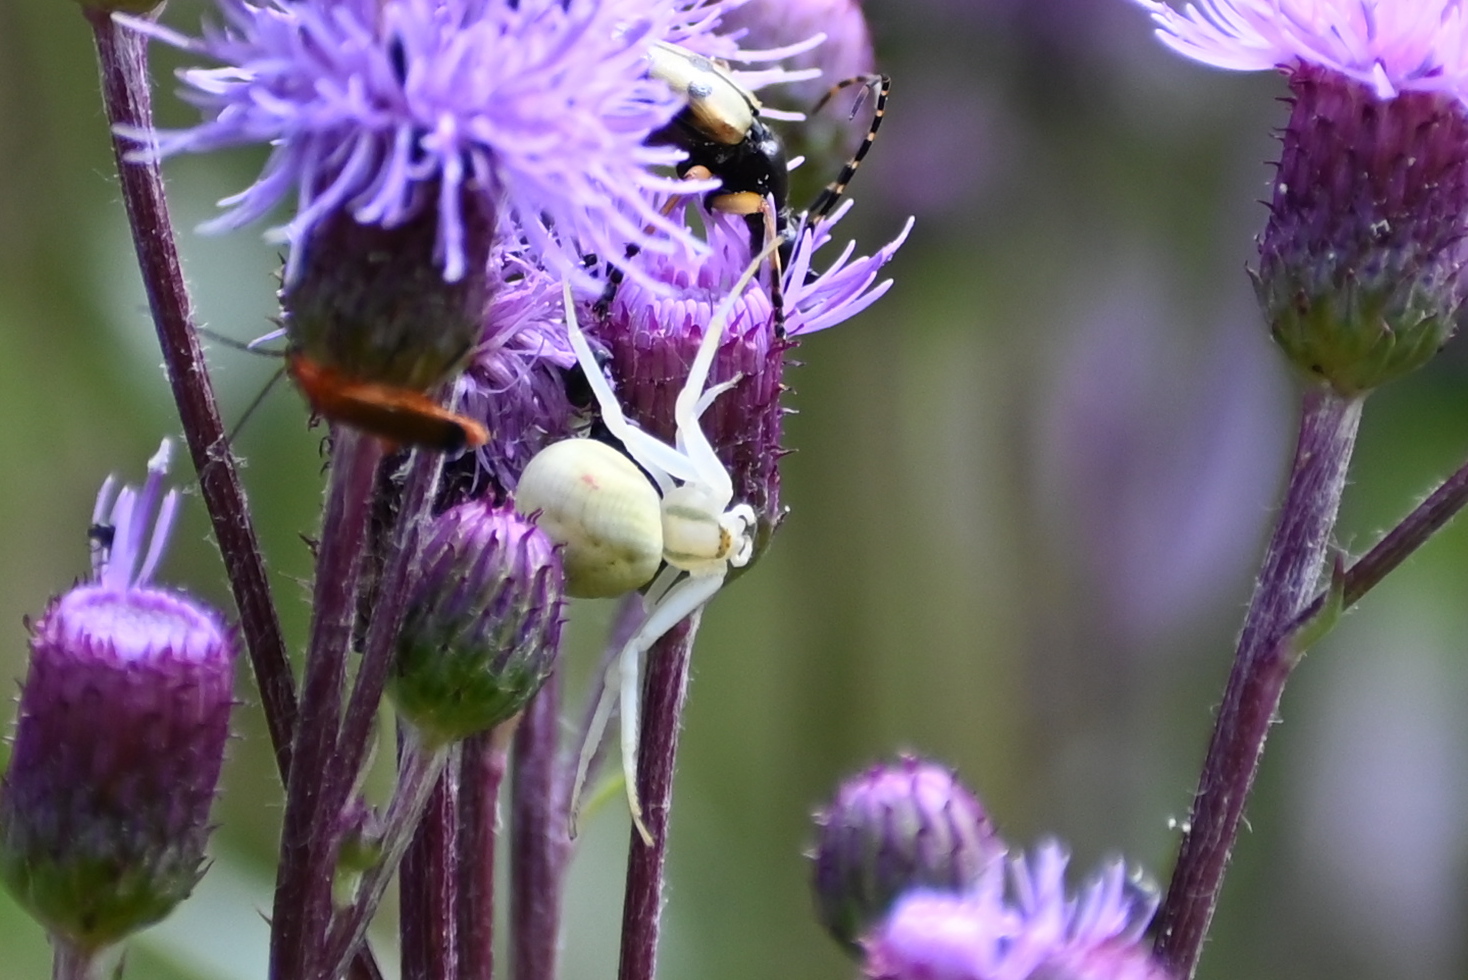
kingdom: Animalia
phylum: Arthropoda
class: Arachnida
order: Araneae
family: Thomisidae
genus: Misumena
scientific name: Misumena vatia
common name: Goldenrod crab spider
